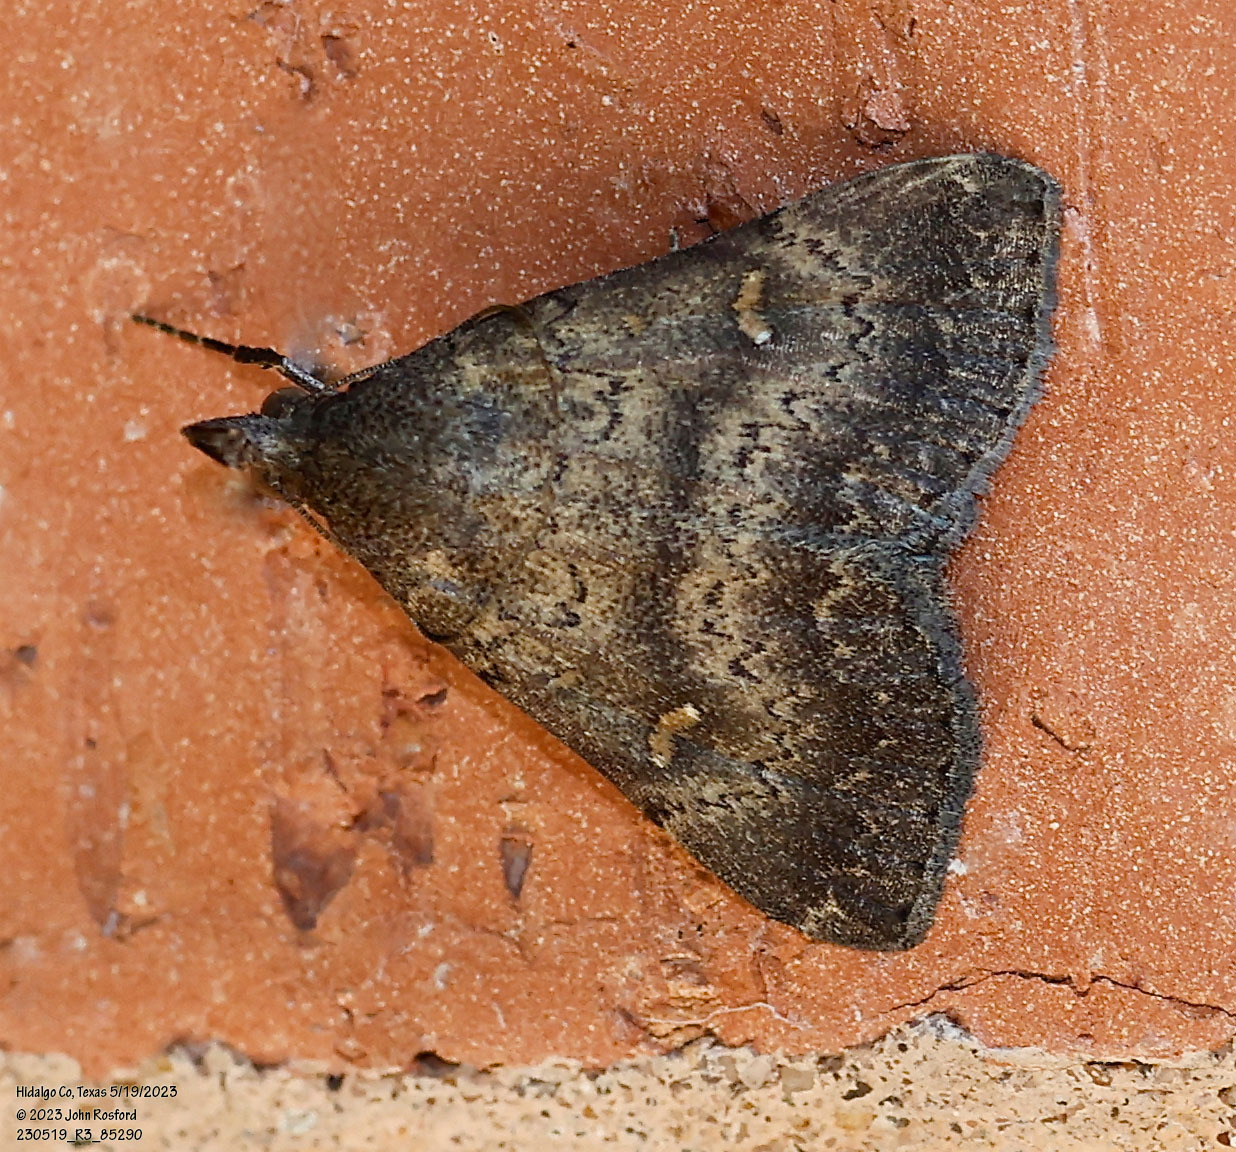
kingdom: Animalia
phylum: Arthropoda
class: Insecta
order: Lepidoptera
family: Erebidae
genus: Hypenula
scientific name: Hypenula cacuminalis
